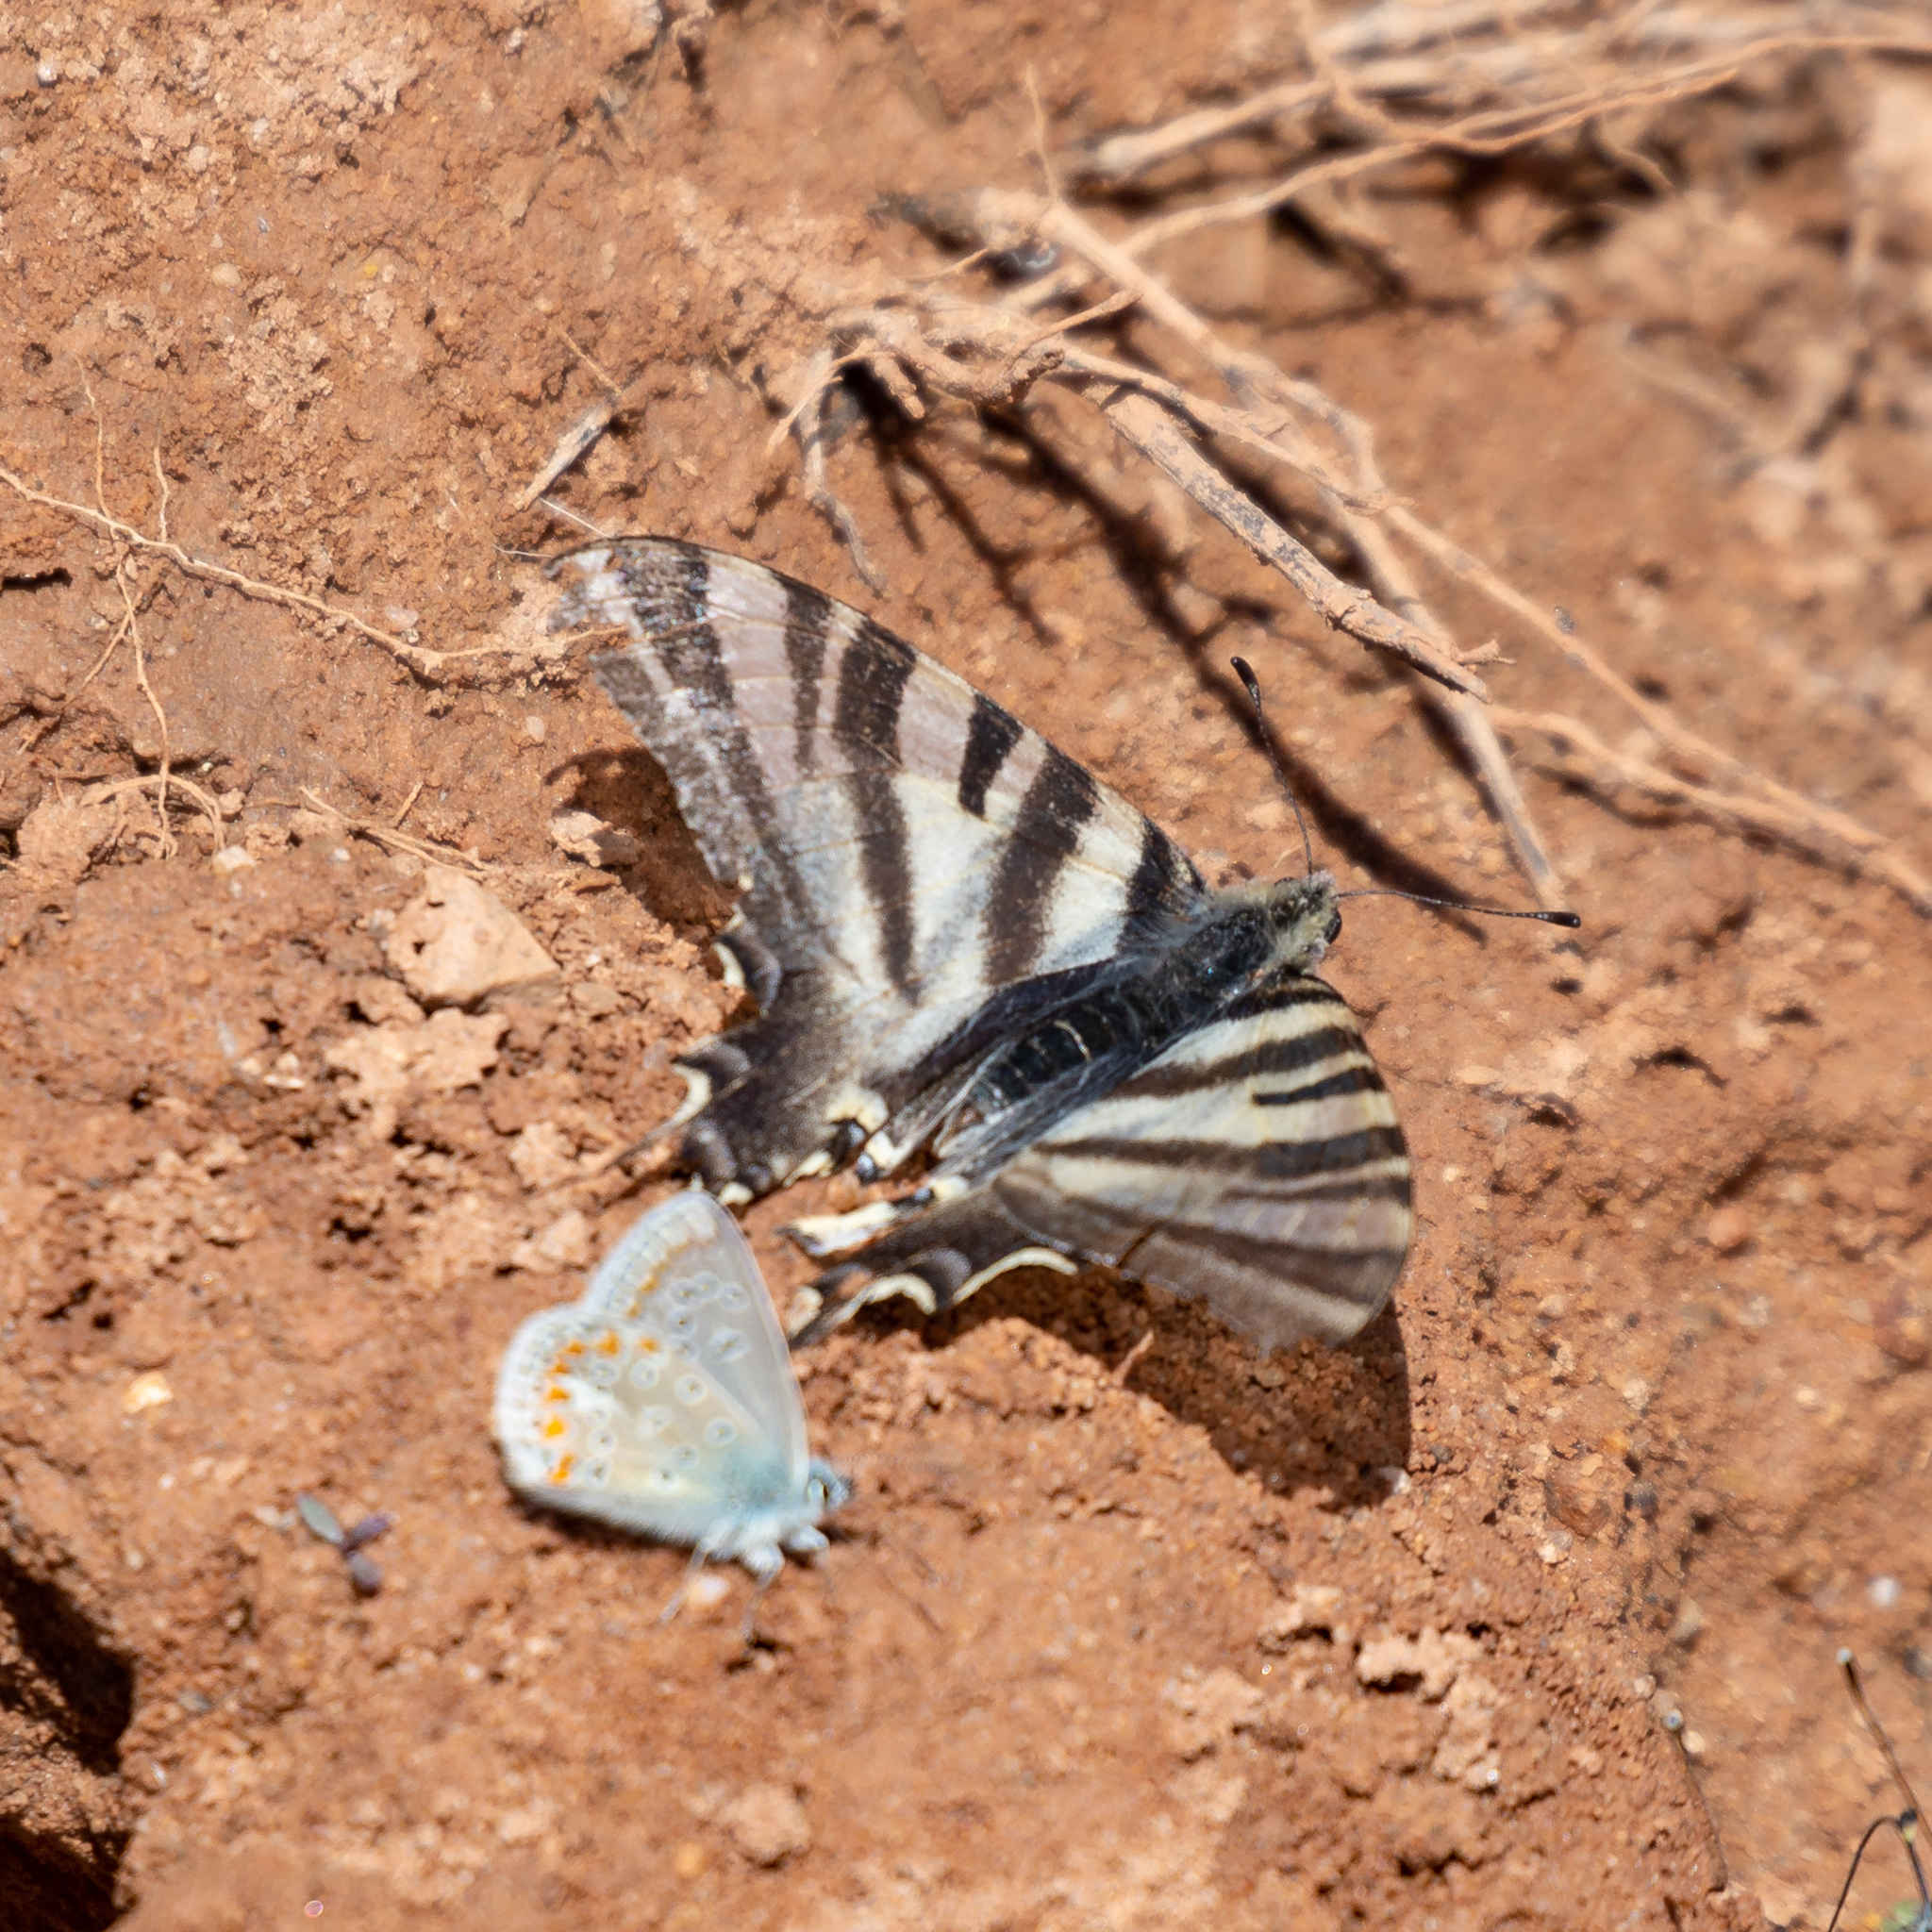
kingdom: Animalia
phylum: Arthropoda
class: Insecta
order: Lepidoptera
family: Papilionidae
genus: Iphiclides
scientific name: Iphiclides feisthamelii
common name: Iberian scarce swallowtail
